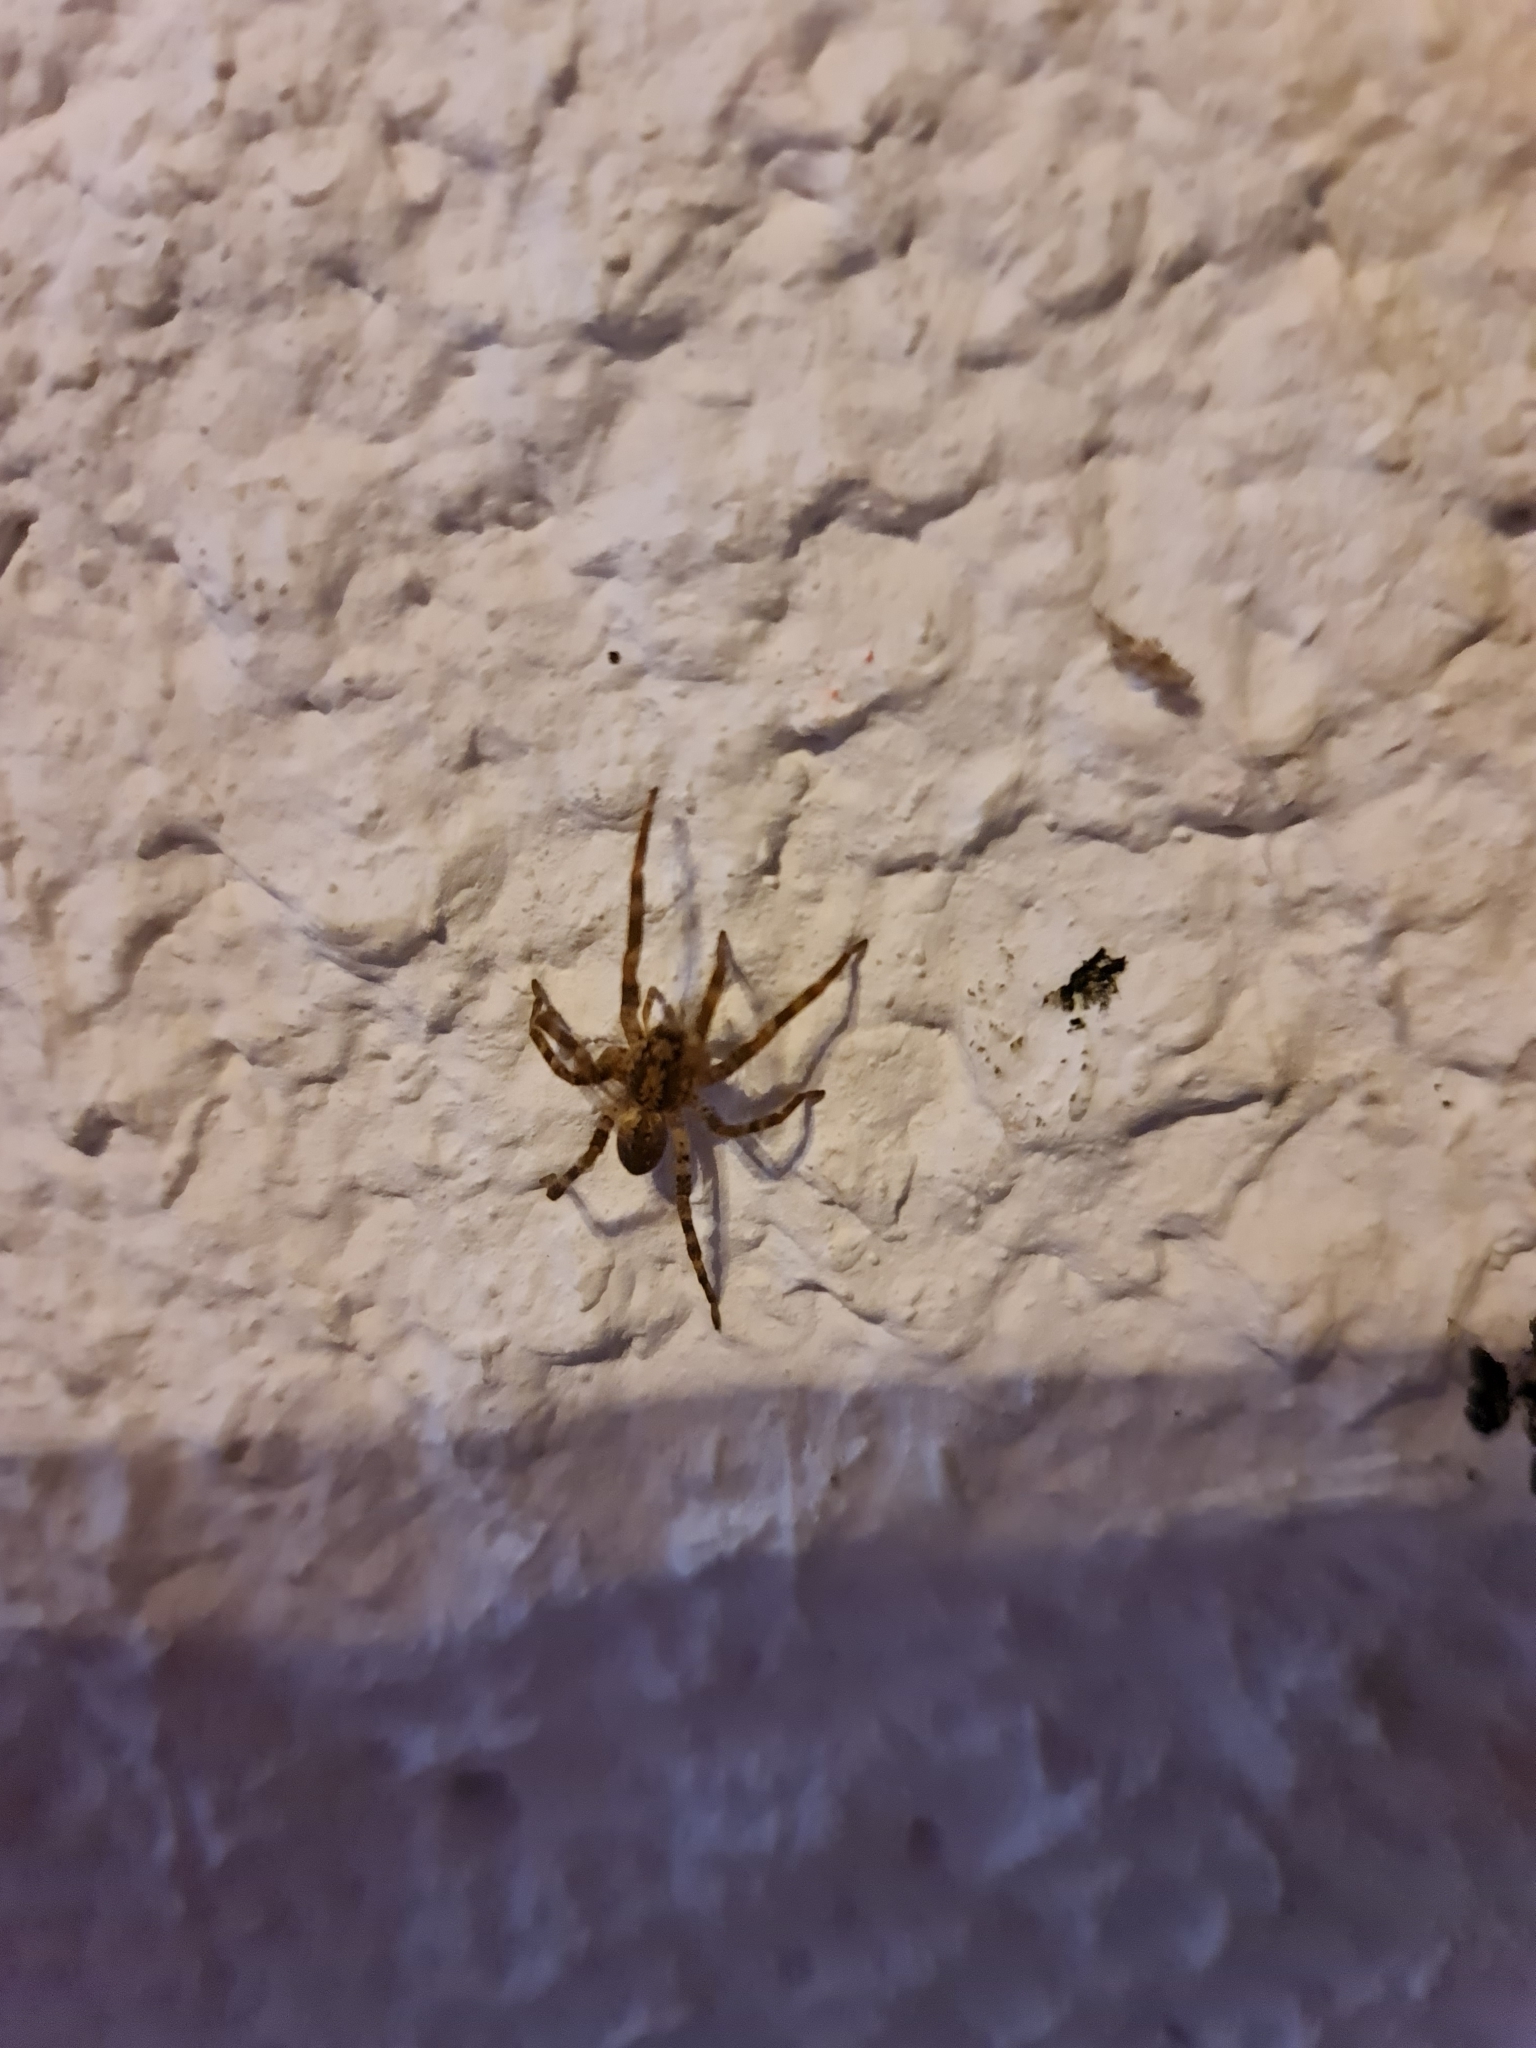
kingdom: Animalia
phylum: Arthropoda
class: Arachnida
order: Araneae
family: Zoropsidae
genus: Zoropsis
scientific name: Zoropsis spinimana
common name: Zoropsid spider
